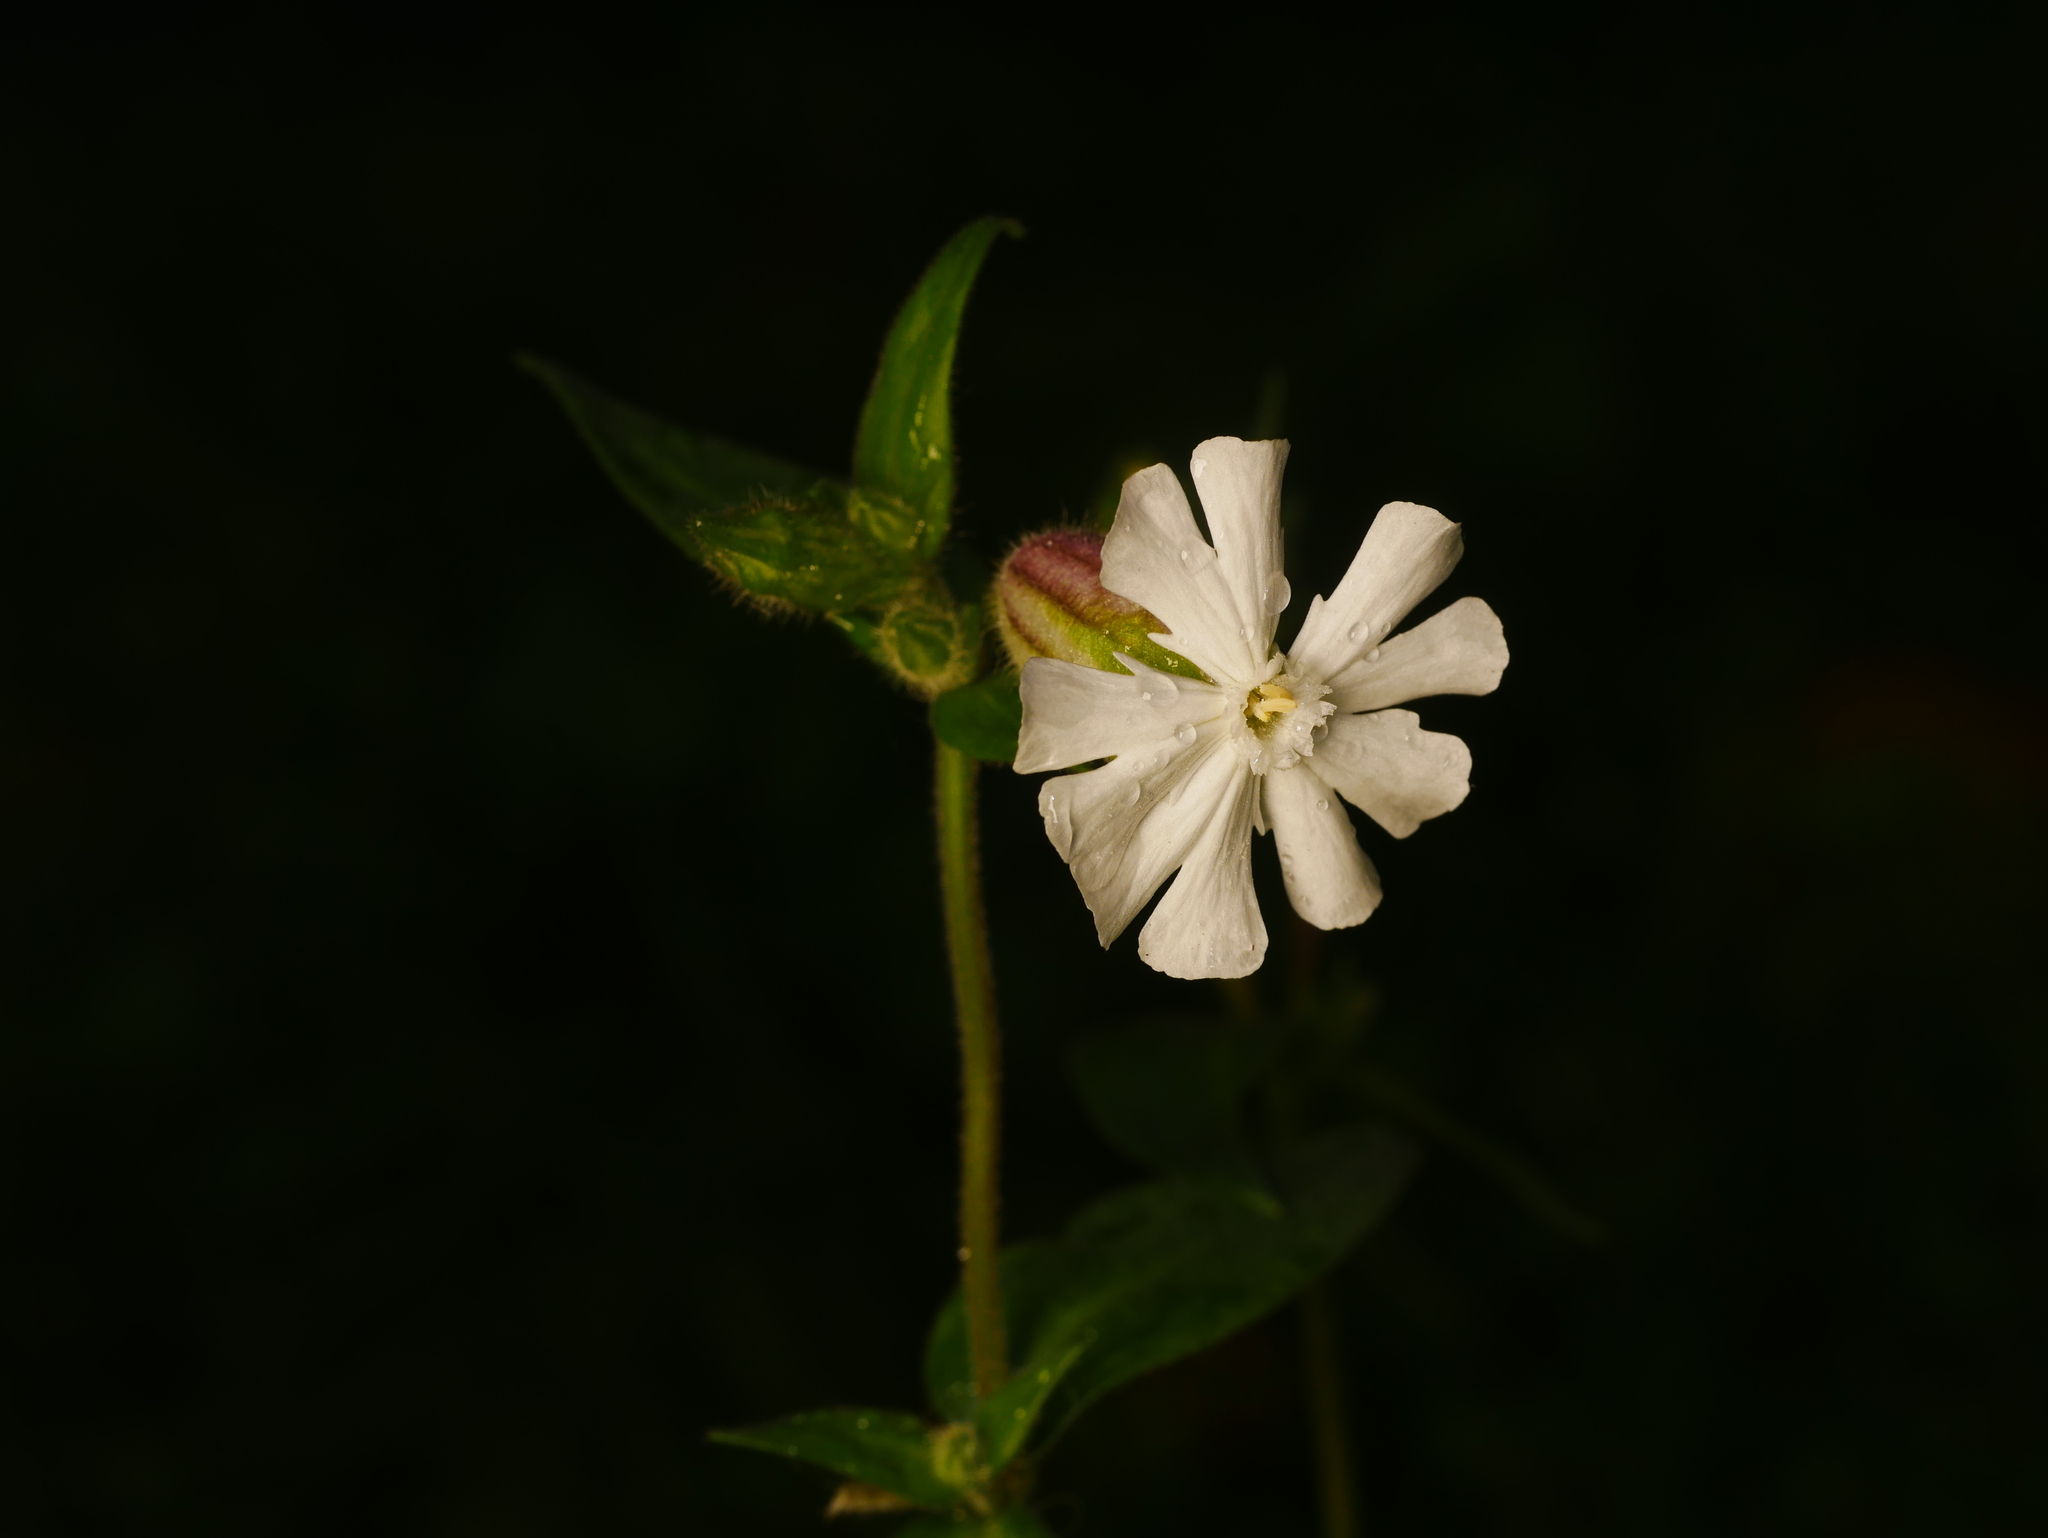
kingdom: Plantae
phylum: Tracheophyta
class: Magnoliopsida
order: Caryophyllales
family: Caryophyllaceae
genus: Silene
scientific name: Silene latifolia
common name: White campion
